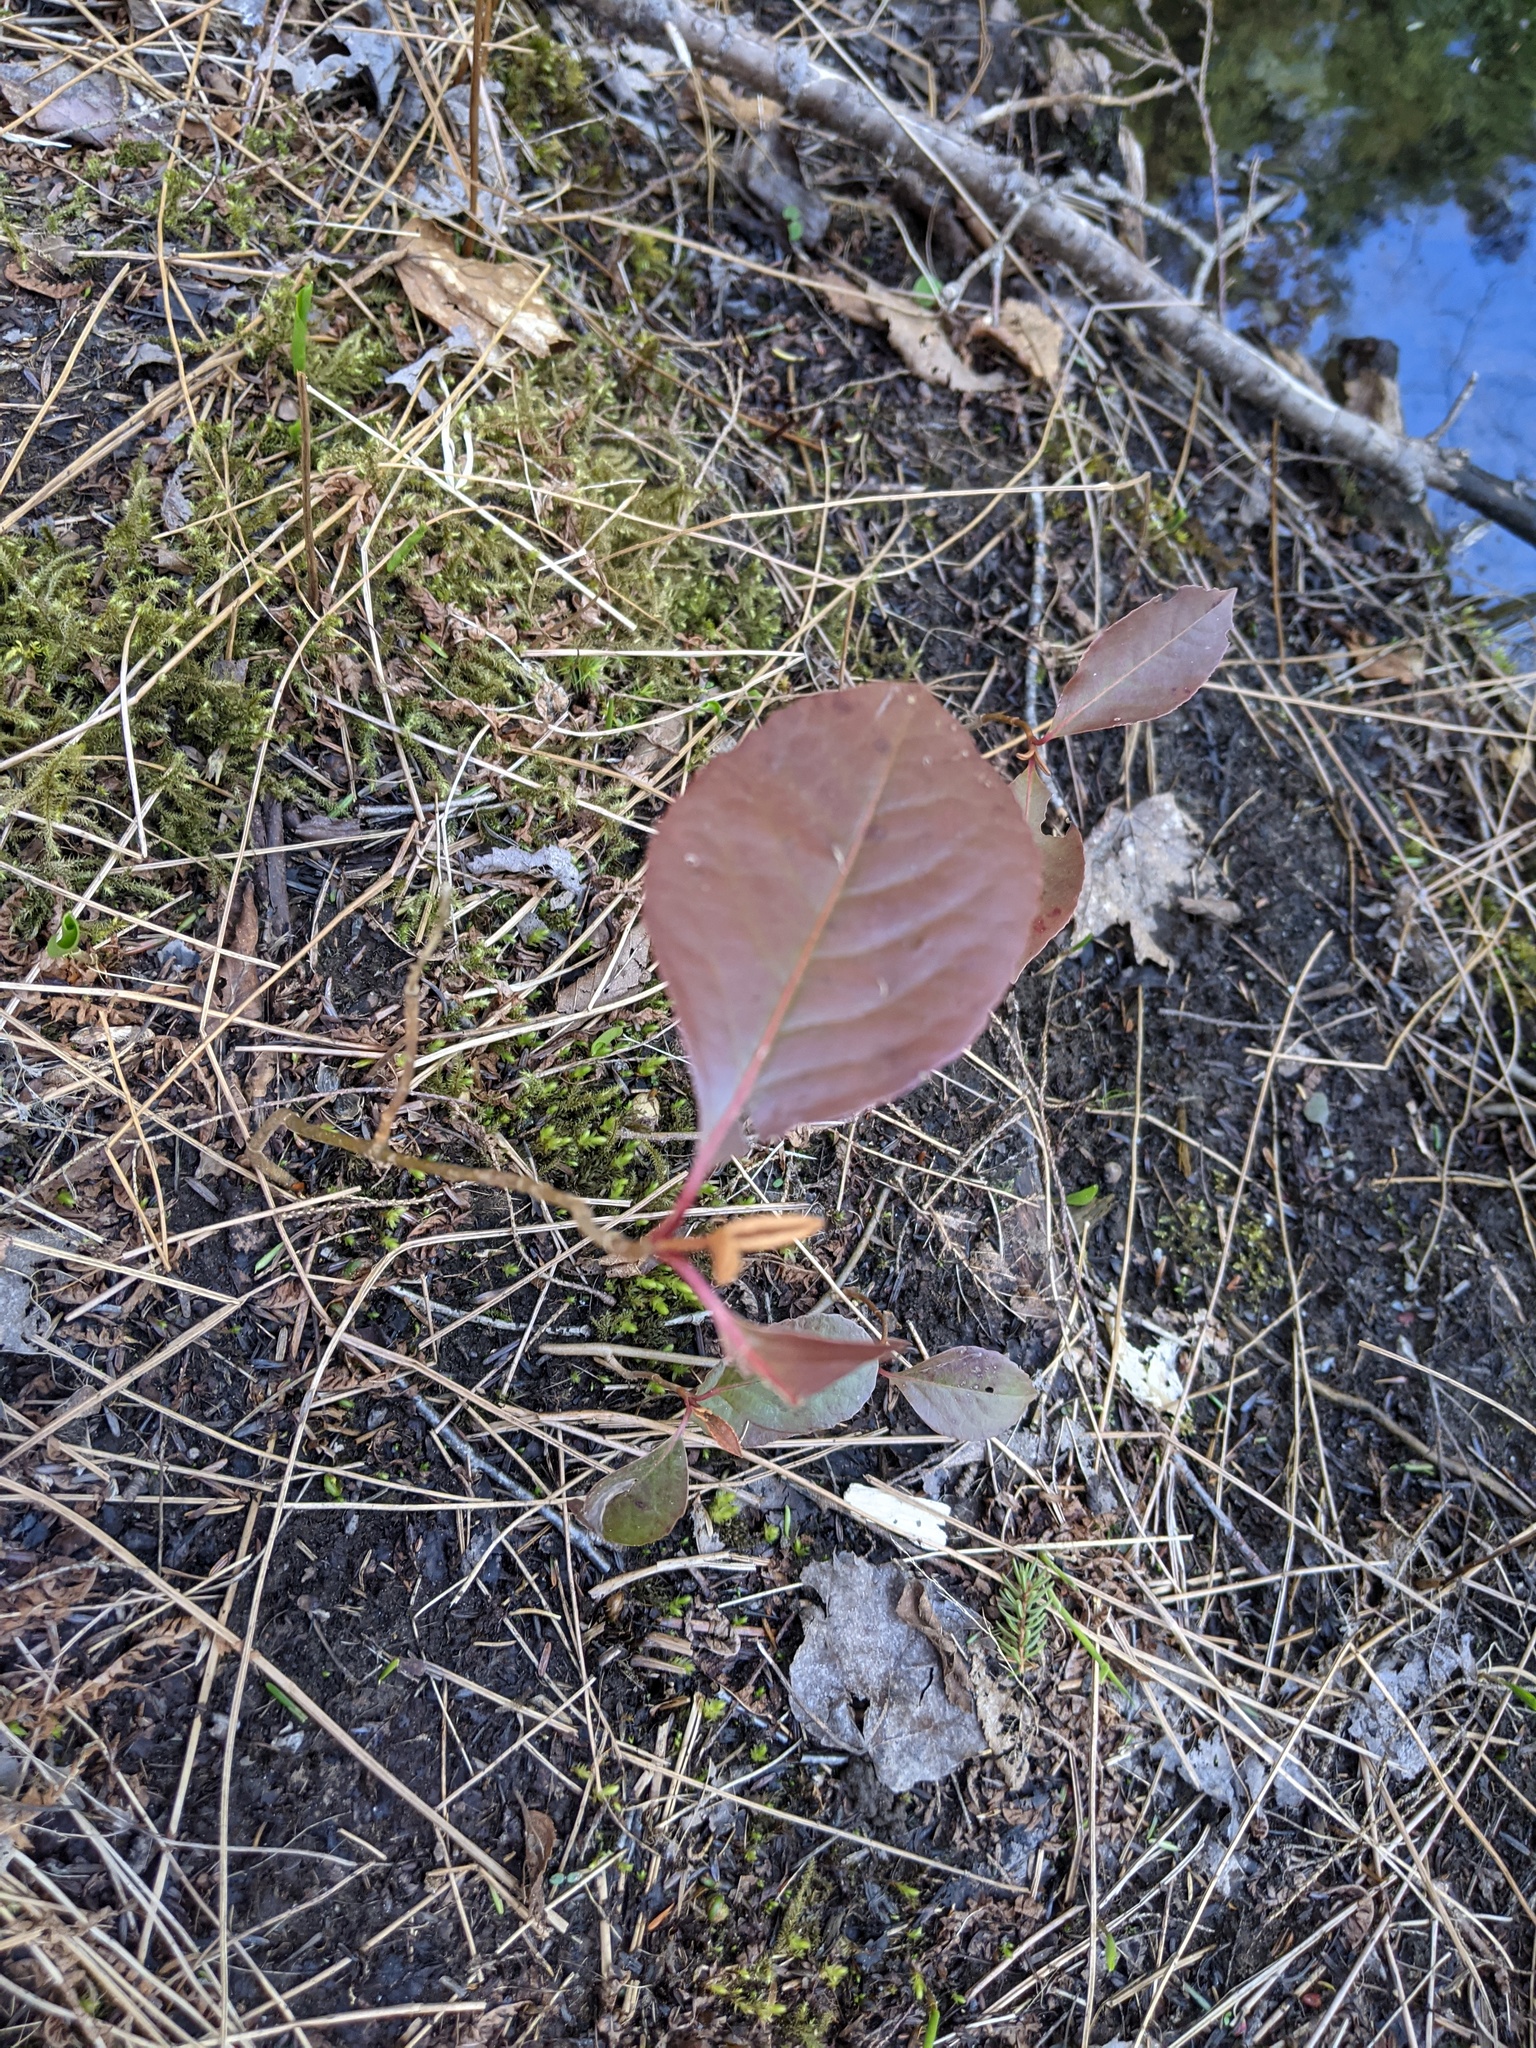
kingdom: Plantae
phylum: Tracheophyta
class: Magnoliopsida
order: Dipsacales
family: Viburnaceae
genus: Viburnum
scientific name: Viburnum cassinoides
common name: Swamp haw
